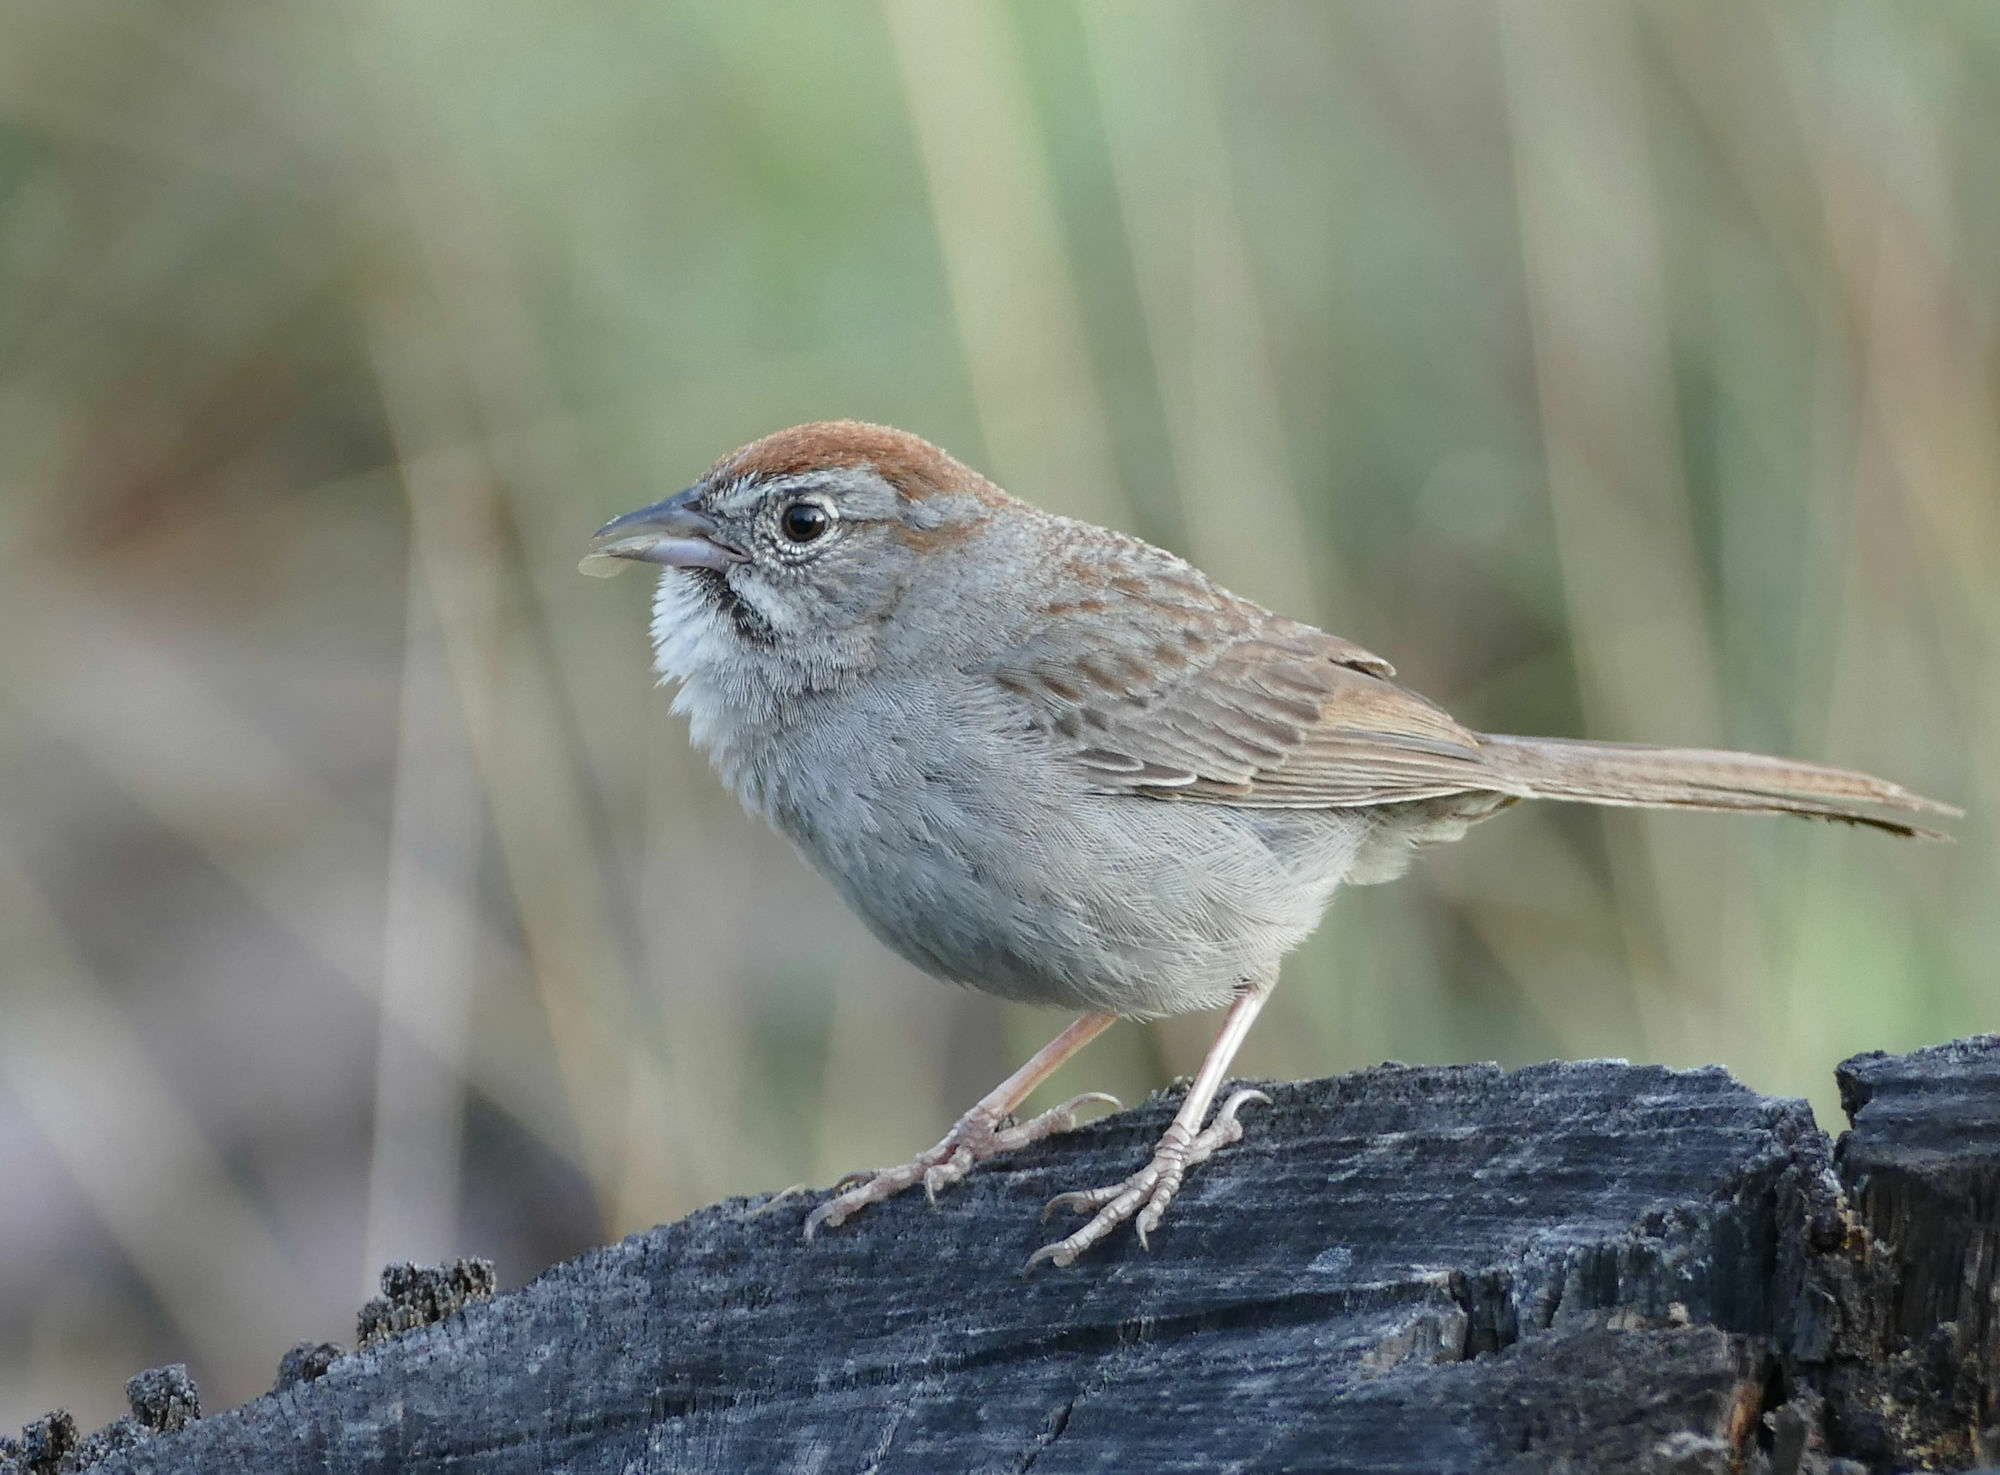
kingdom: Animalia
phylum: Chordata
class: Aves
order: Passeriformes
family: Passerellidae
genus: Aimophila
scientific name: Aimophila ruficeps
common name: Rufous-crowned sparrow
